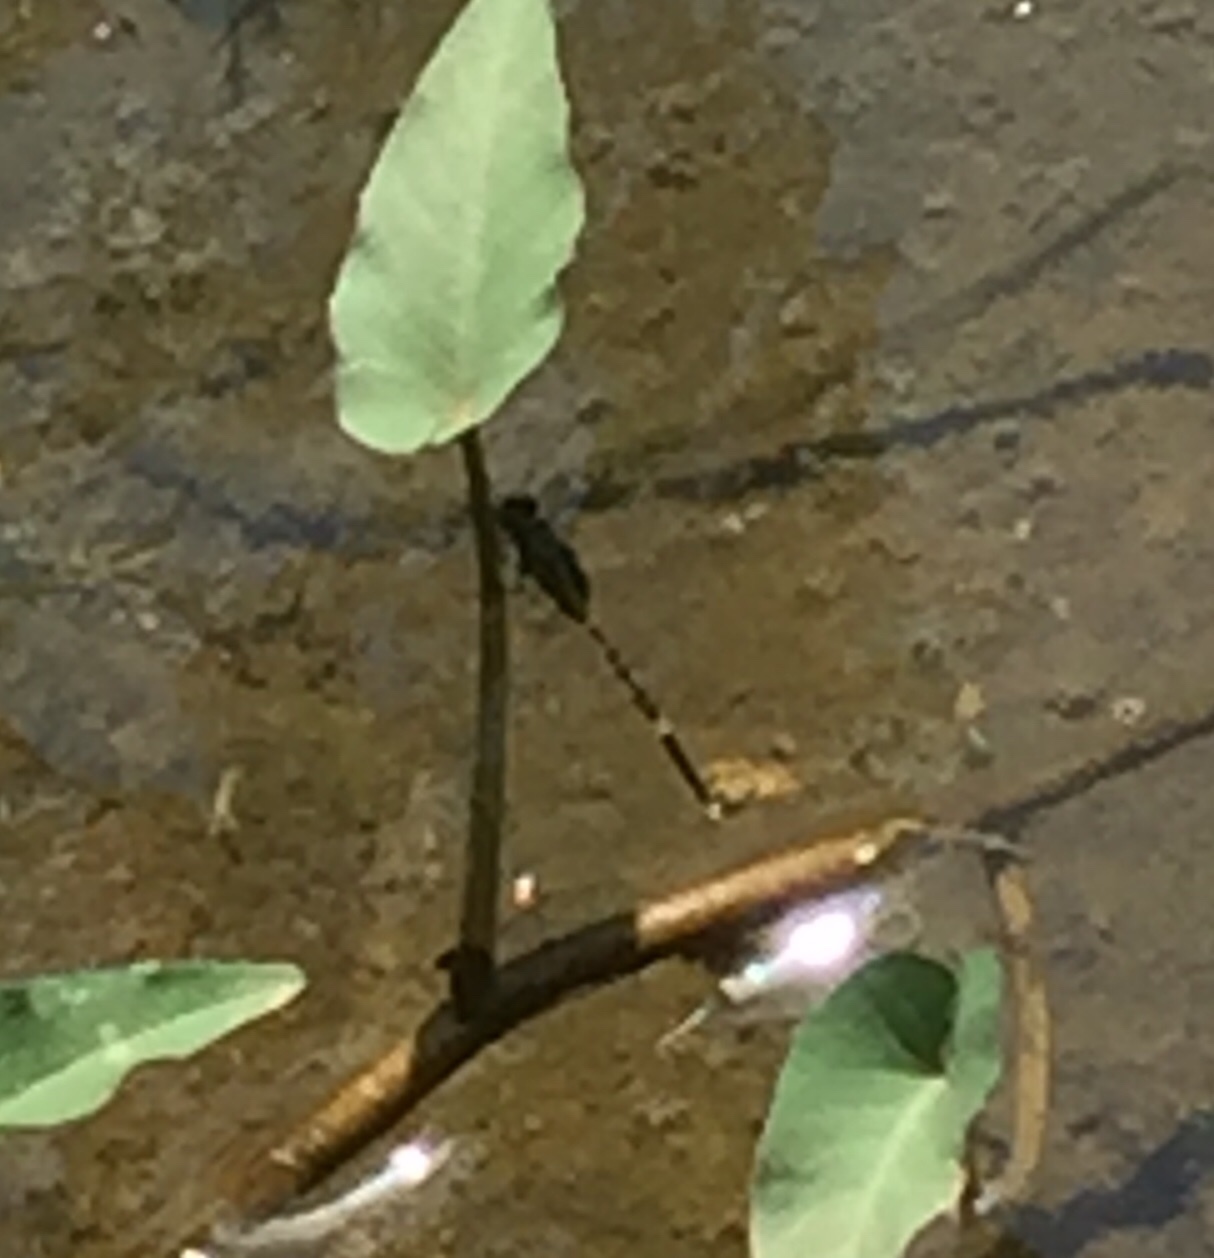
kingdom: Animalia
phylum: Arthropoda
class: Insecta
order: Odonata
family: Libellulidae
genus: Orthetrum
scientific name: Orthetrum sabina
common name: Slender skimmer
